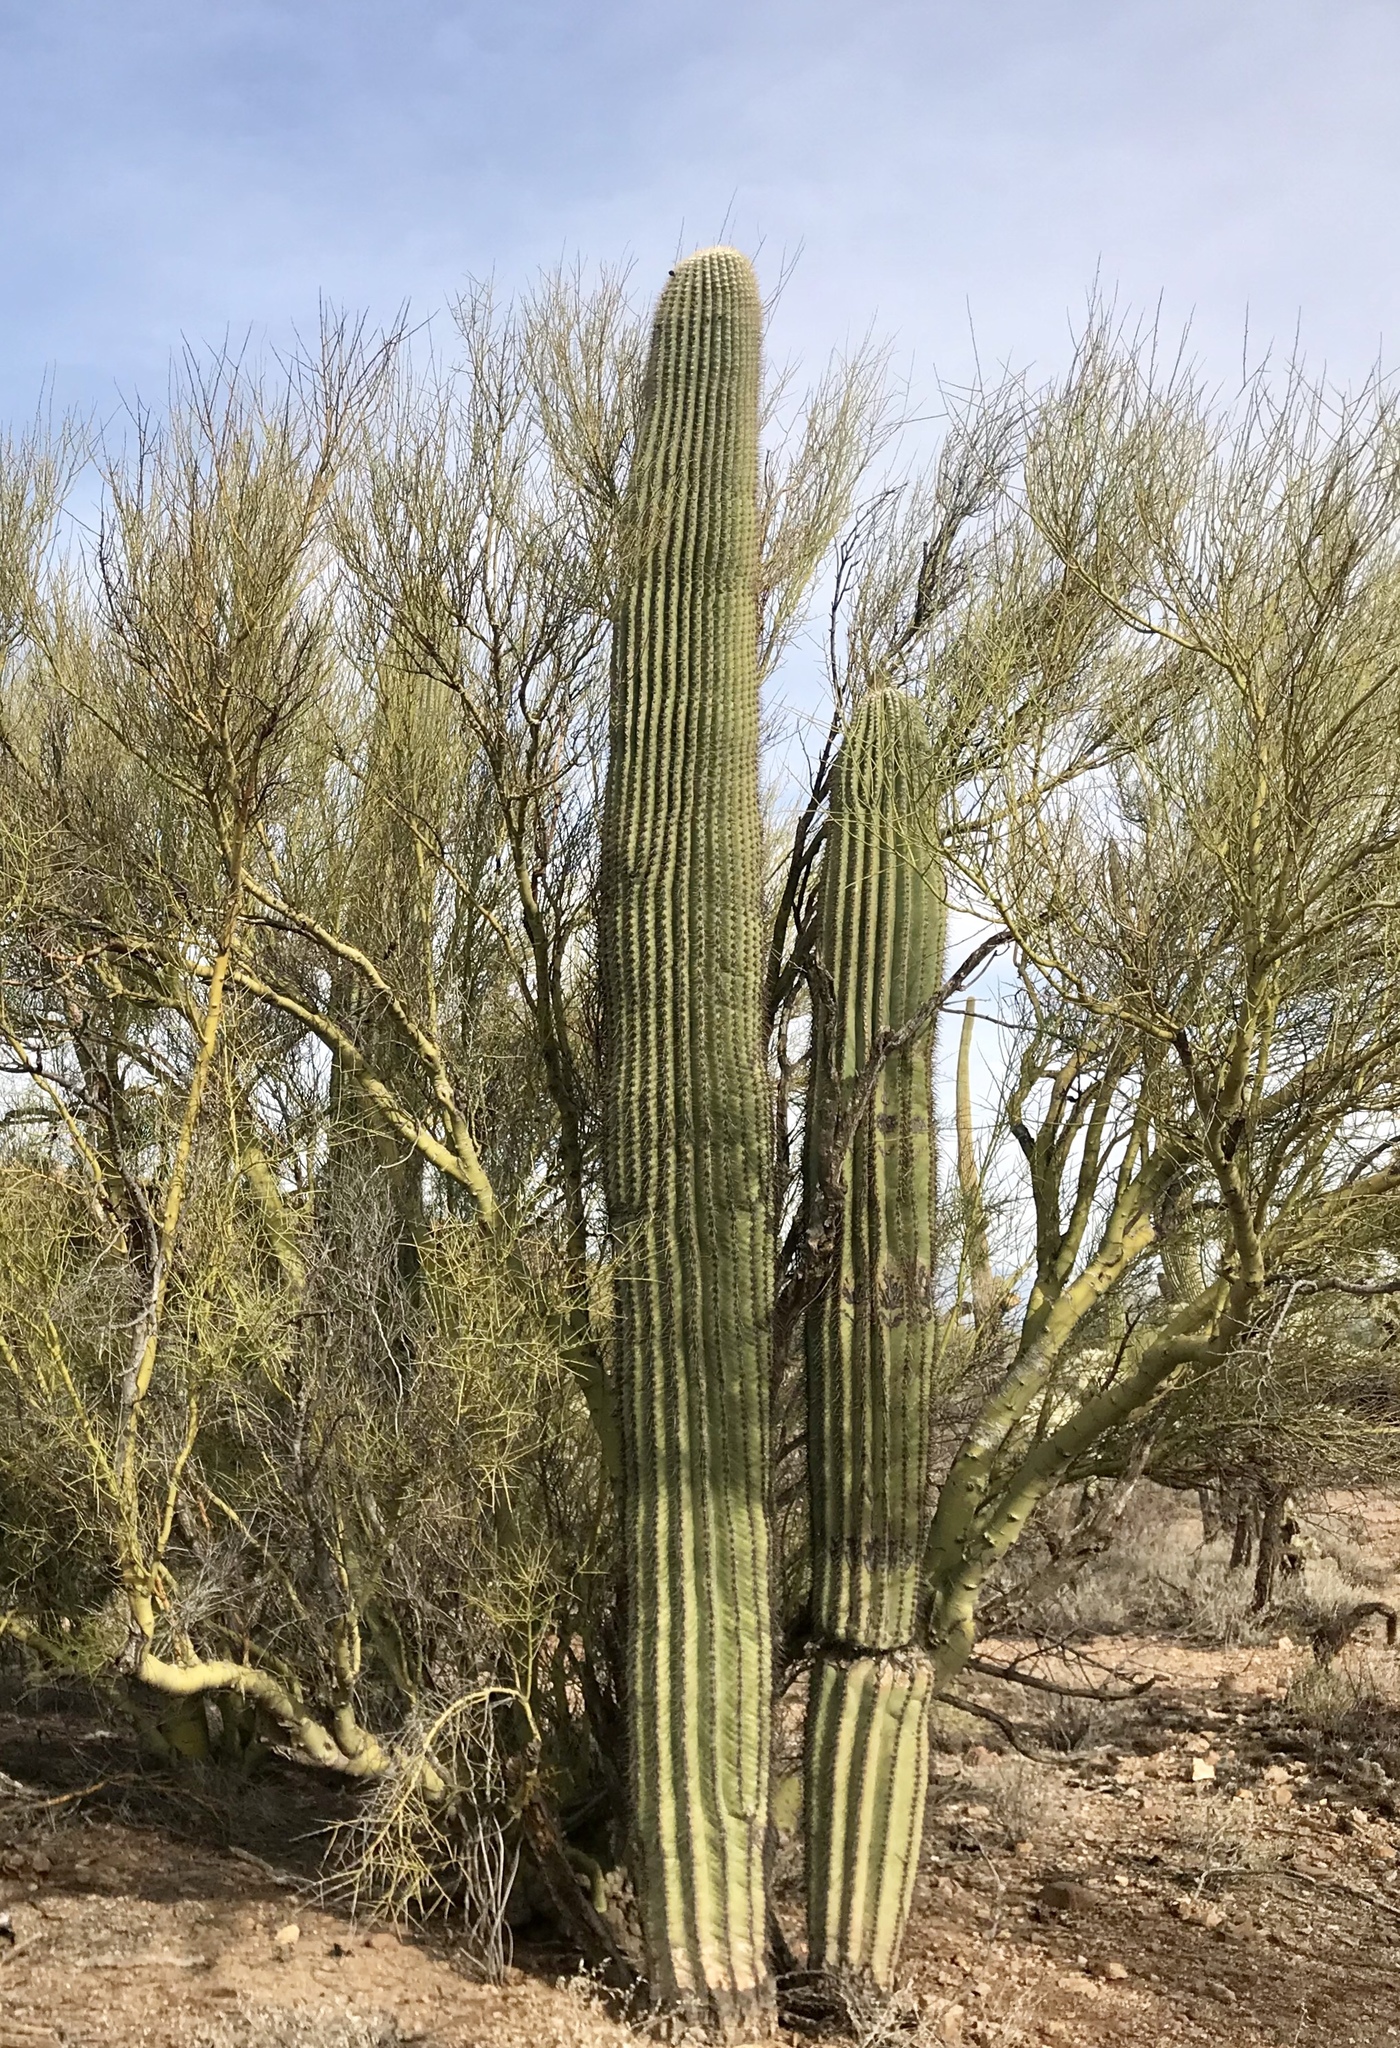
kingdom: Plantae
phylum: Tracheophyta
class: Magnoliopsida
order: Caryophyllales
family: Cactaceae
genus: Carnegiea
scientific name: Carnegiea gigantea
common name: Saguaro
